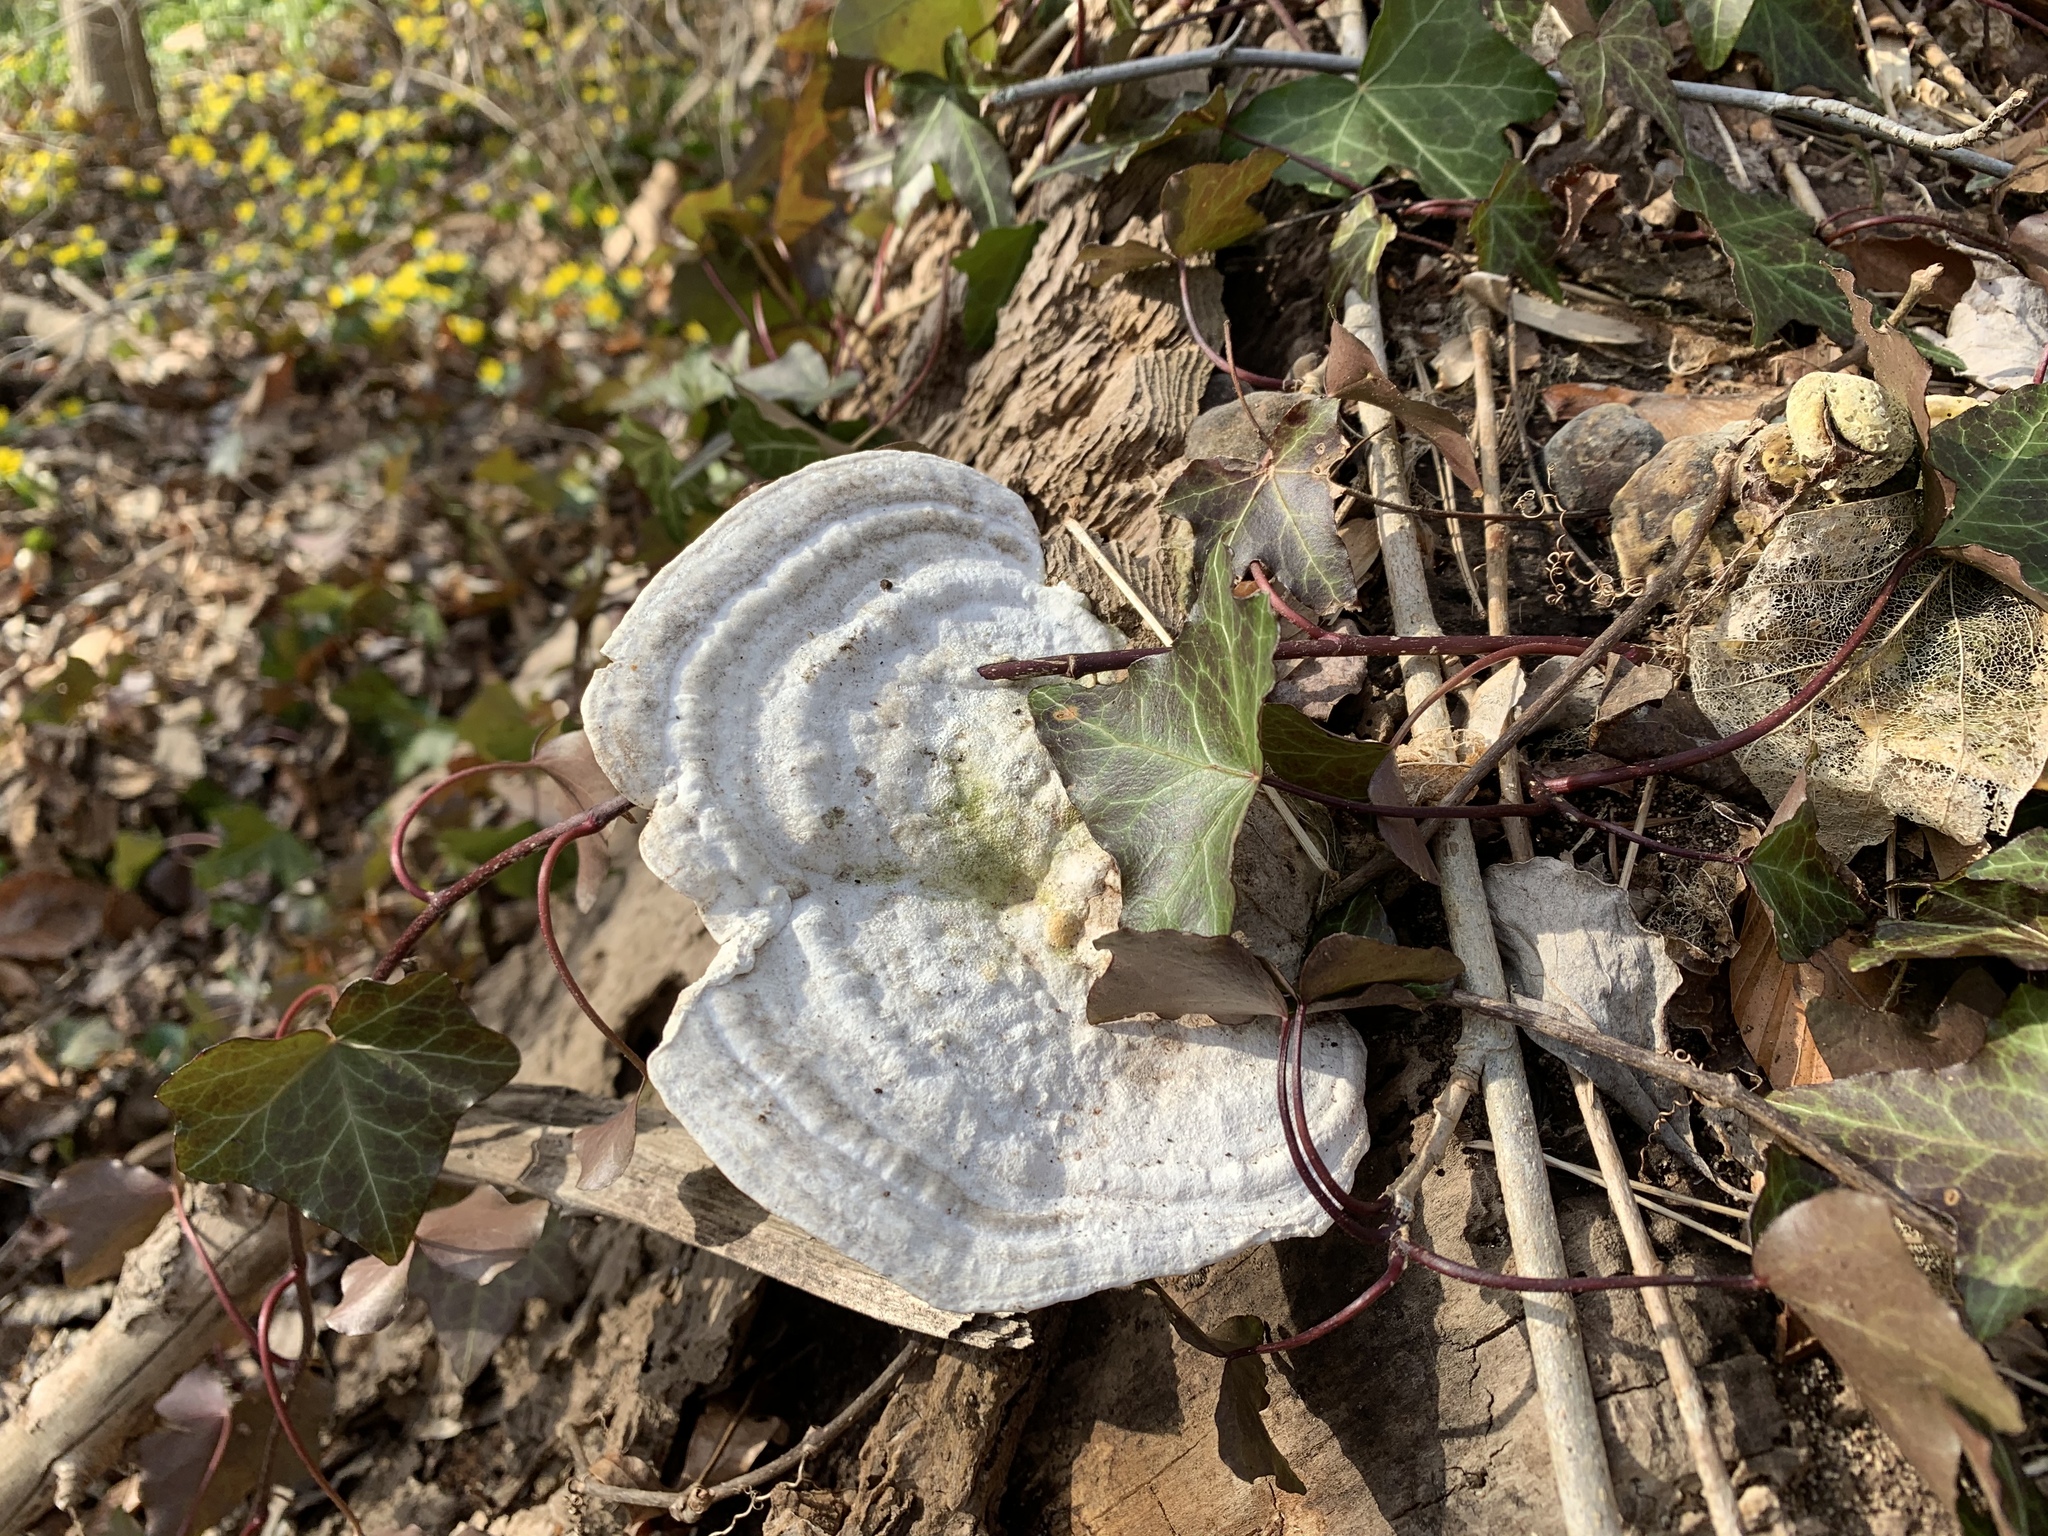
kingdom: Fungi
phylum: Basidiomycota
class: Agaricomycetes
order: Polyporales
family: Polyporaceae
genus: Trametes
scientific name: Trametes gibbosa
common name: Lumpy bracket
